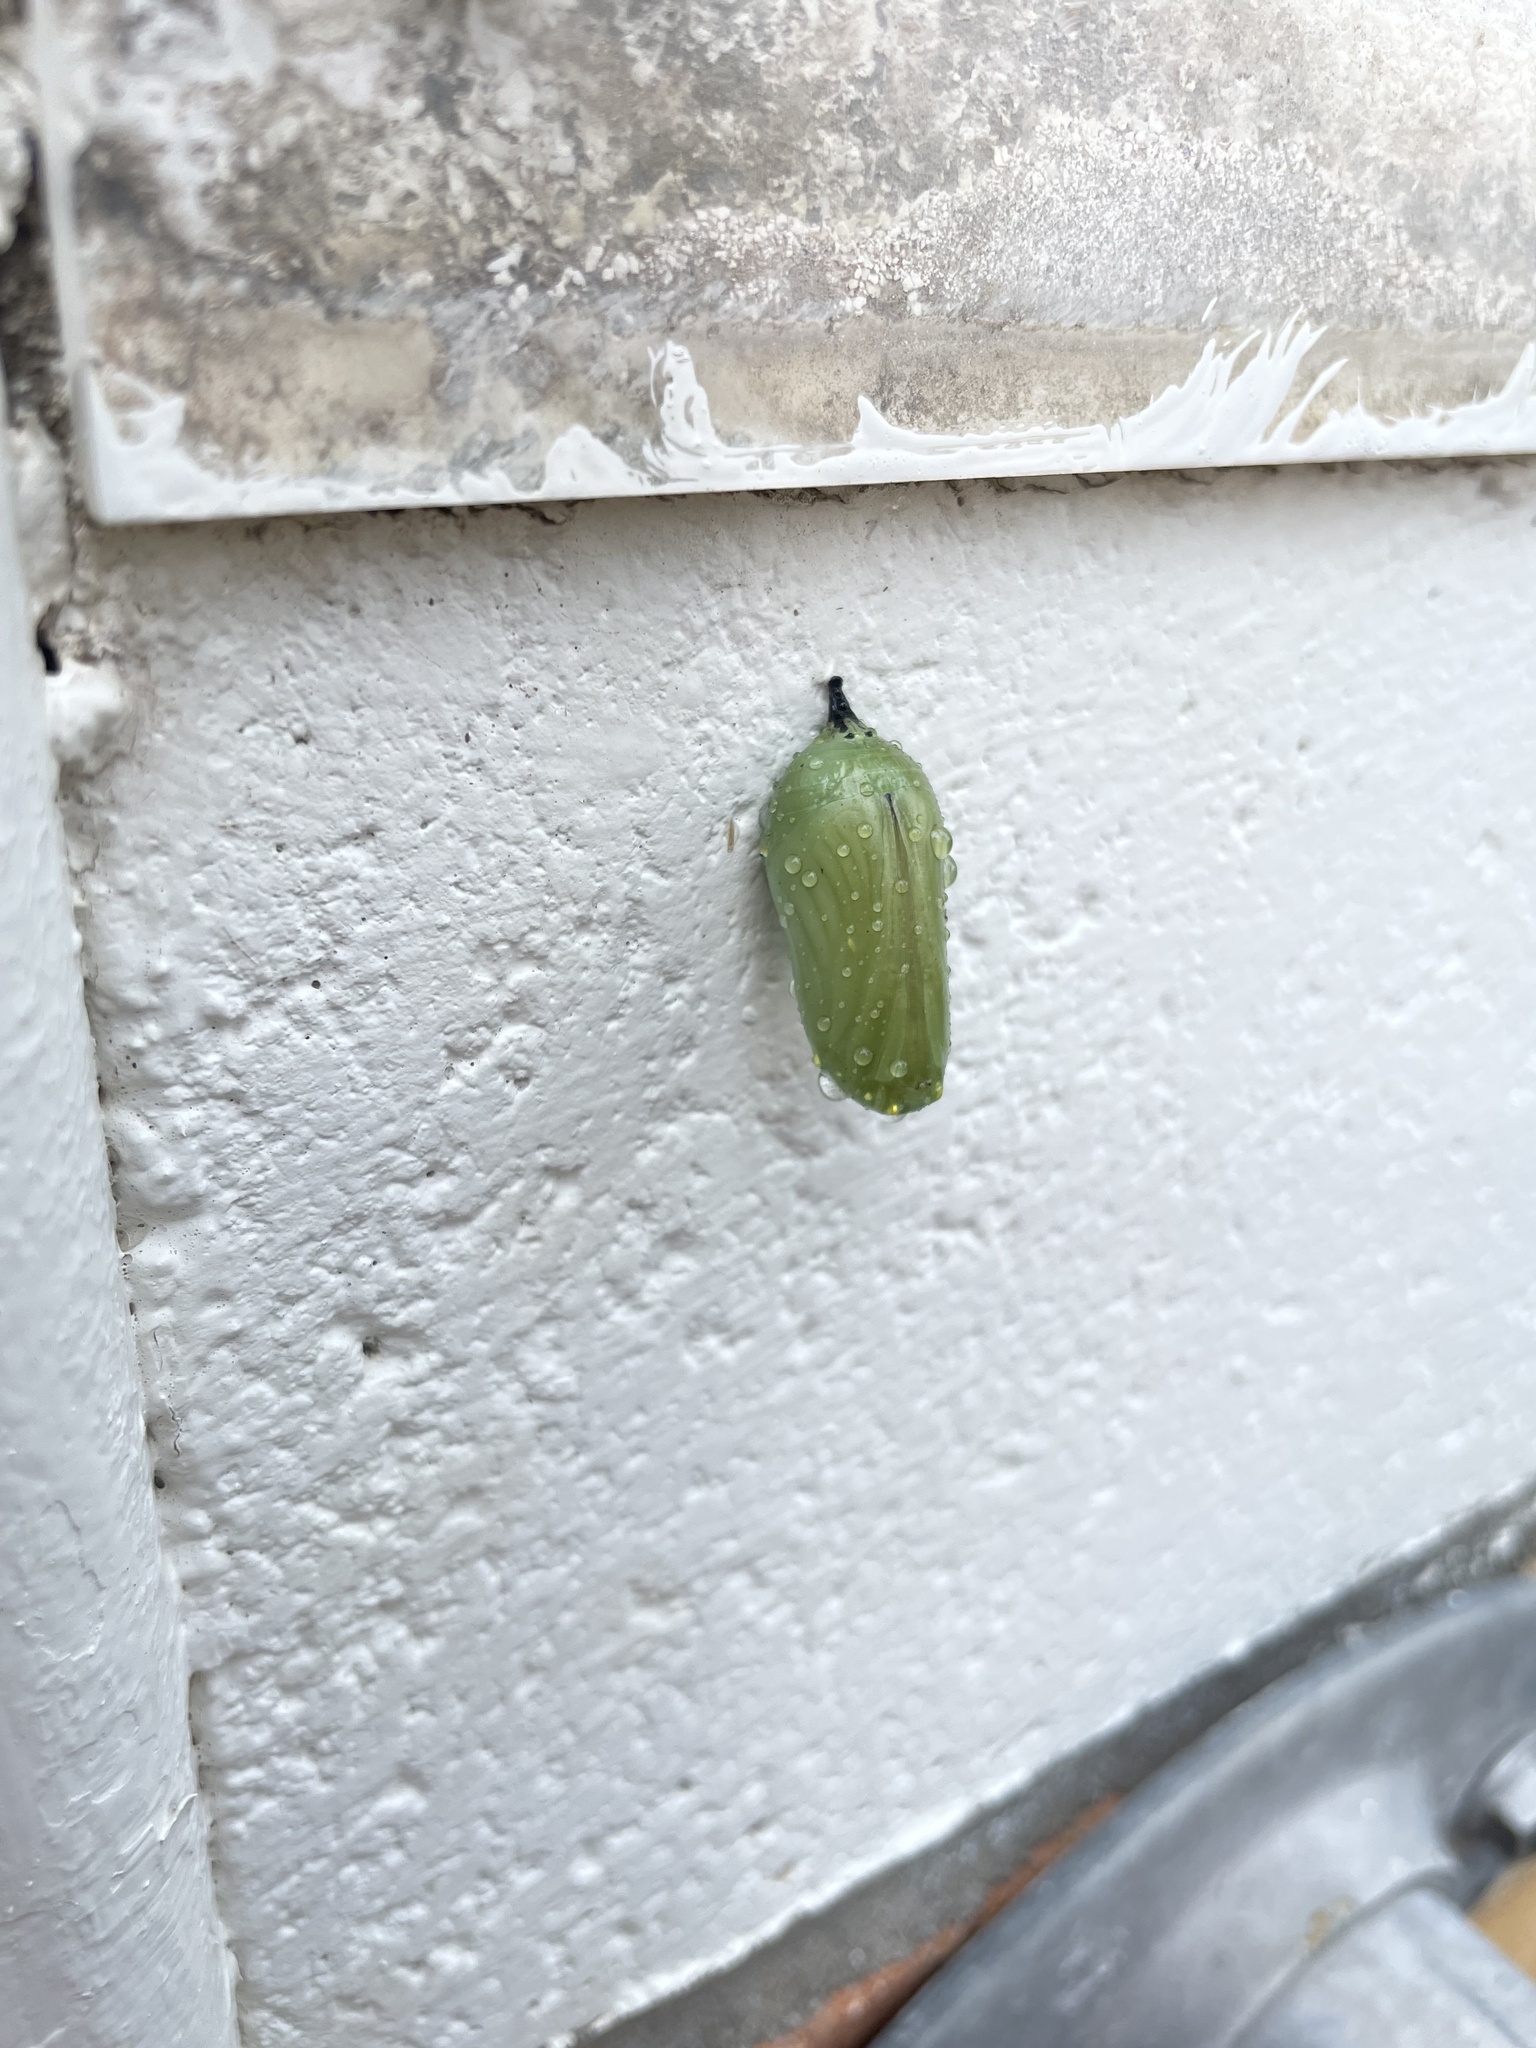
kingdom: Animalia
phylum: Arthropoda
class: Insecta
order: Lepidoptera
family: Nymphalidae
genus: Danaus
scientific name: Danaus plexippus
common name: Monarch
